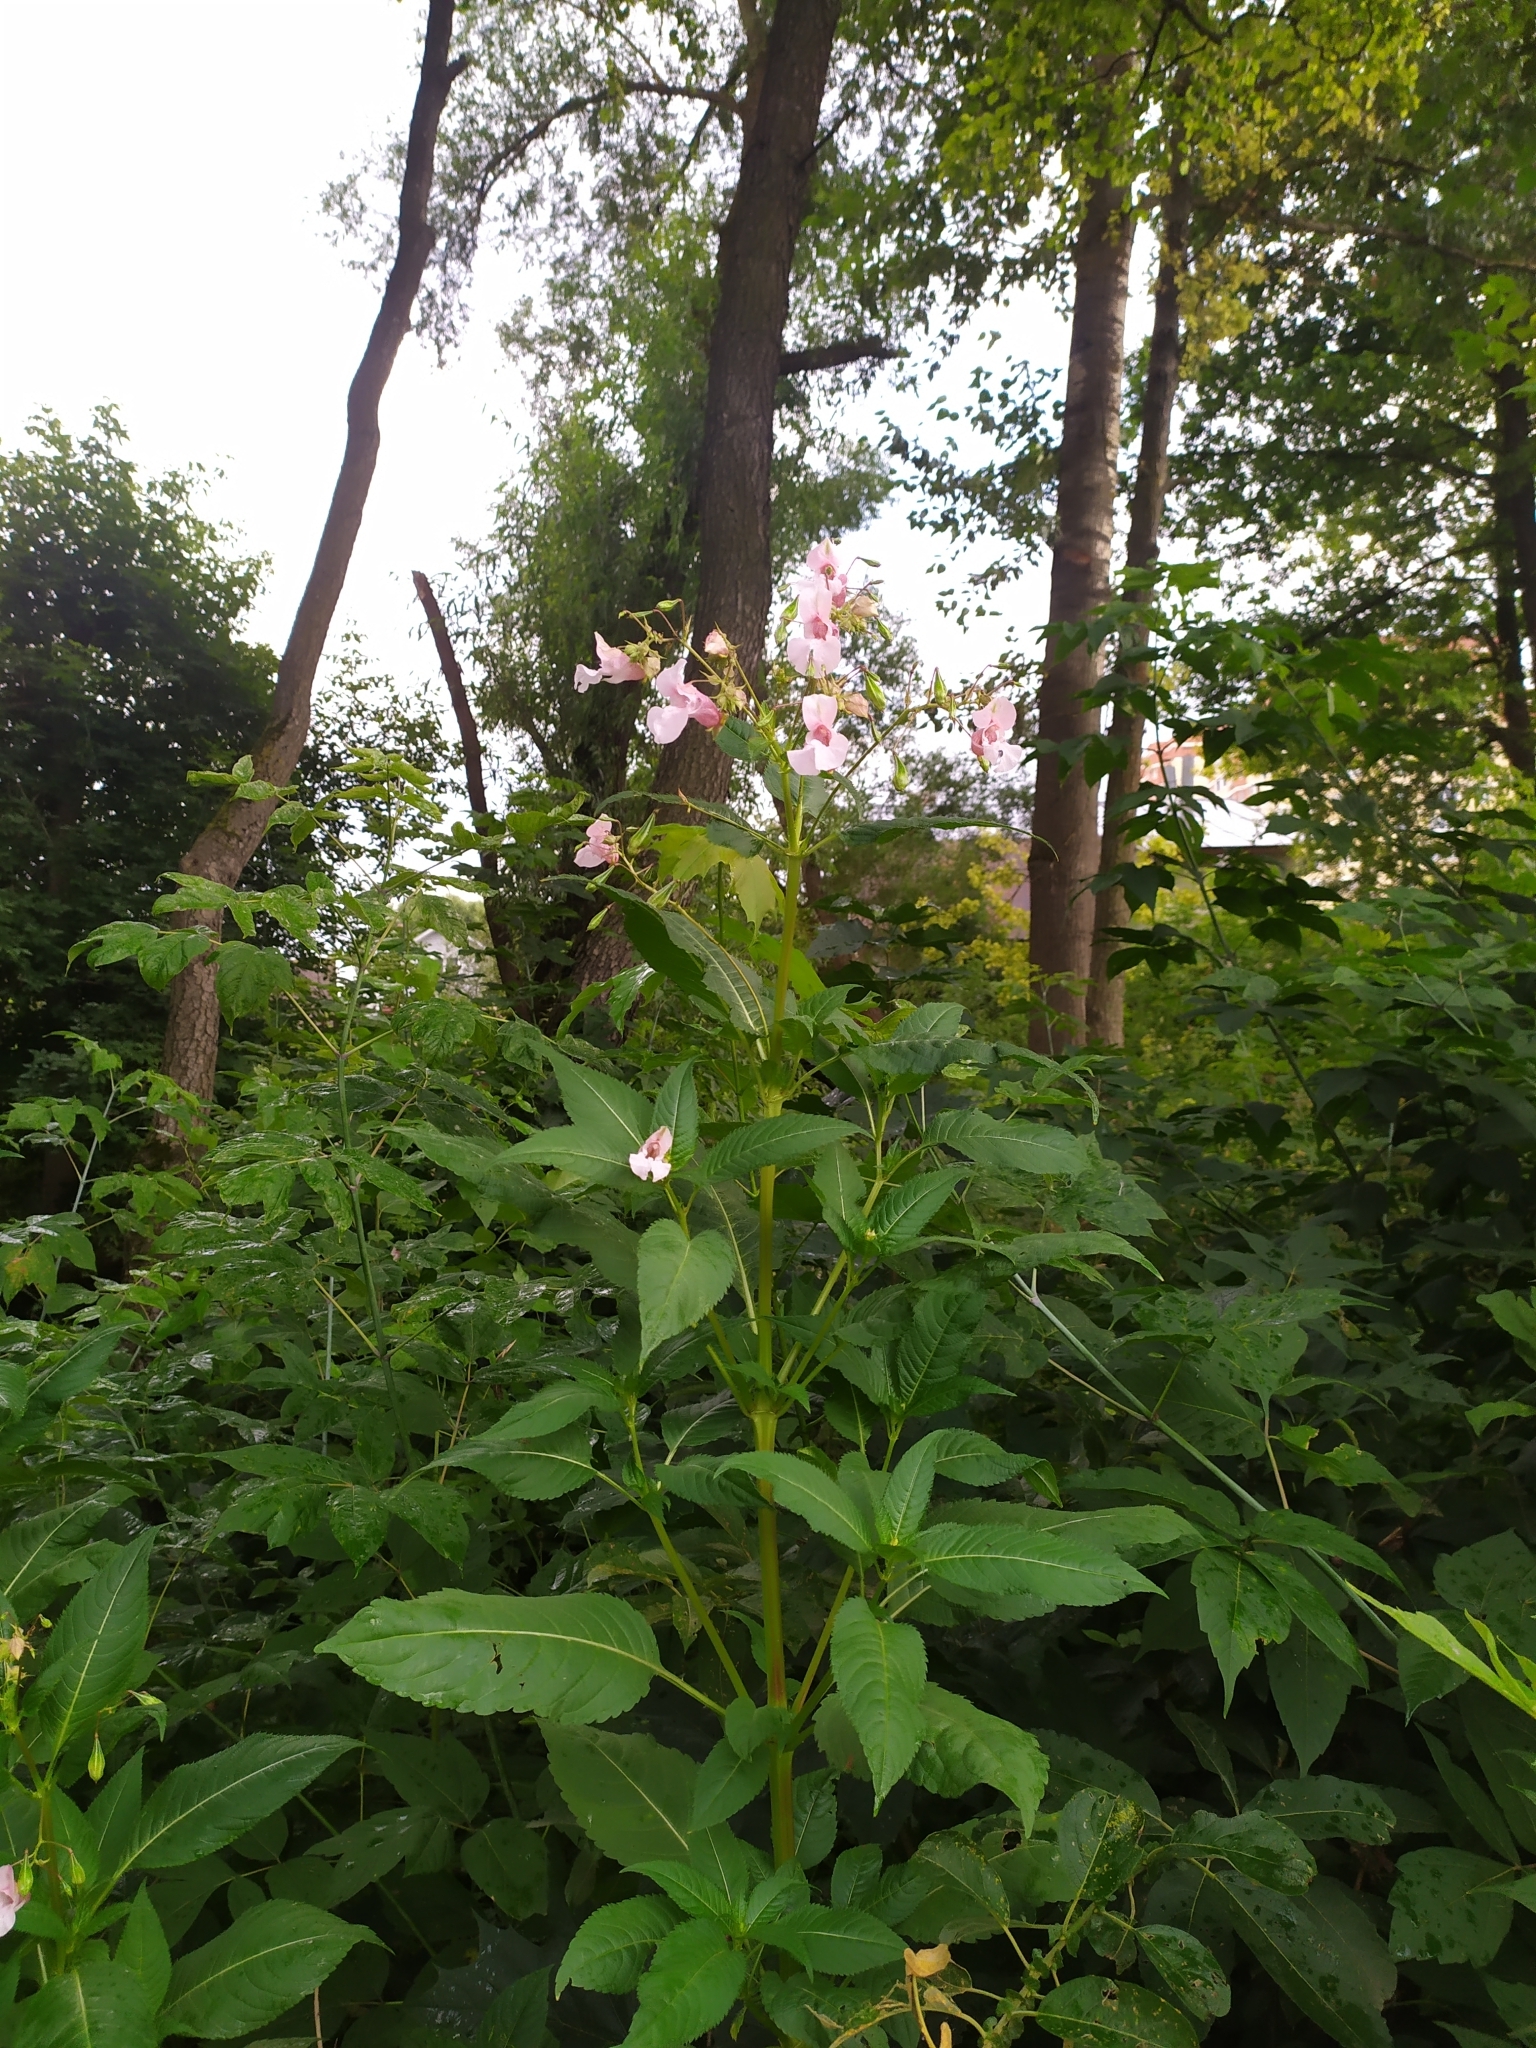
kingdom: Plantae
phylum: Tracheophyta
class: Magnoliopsida
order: Ericales
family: Balsaminaceae
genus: Impatiens
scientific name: Impatiens glandulifera
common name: Himalayan balsam
